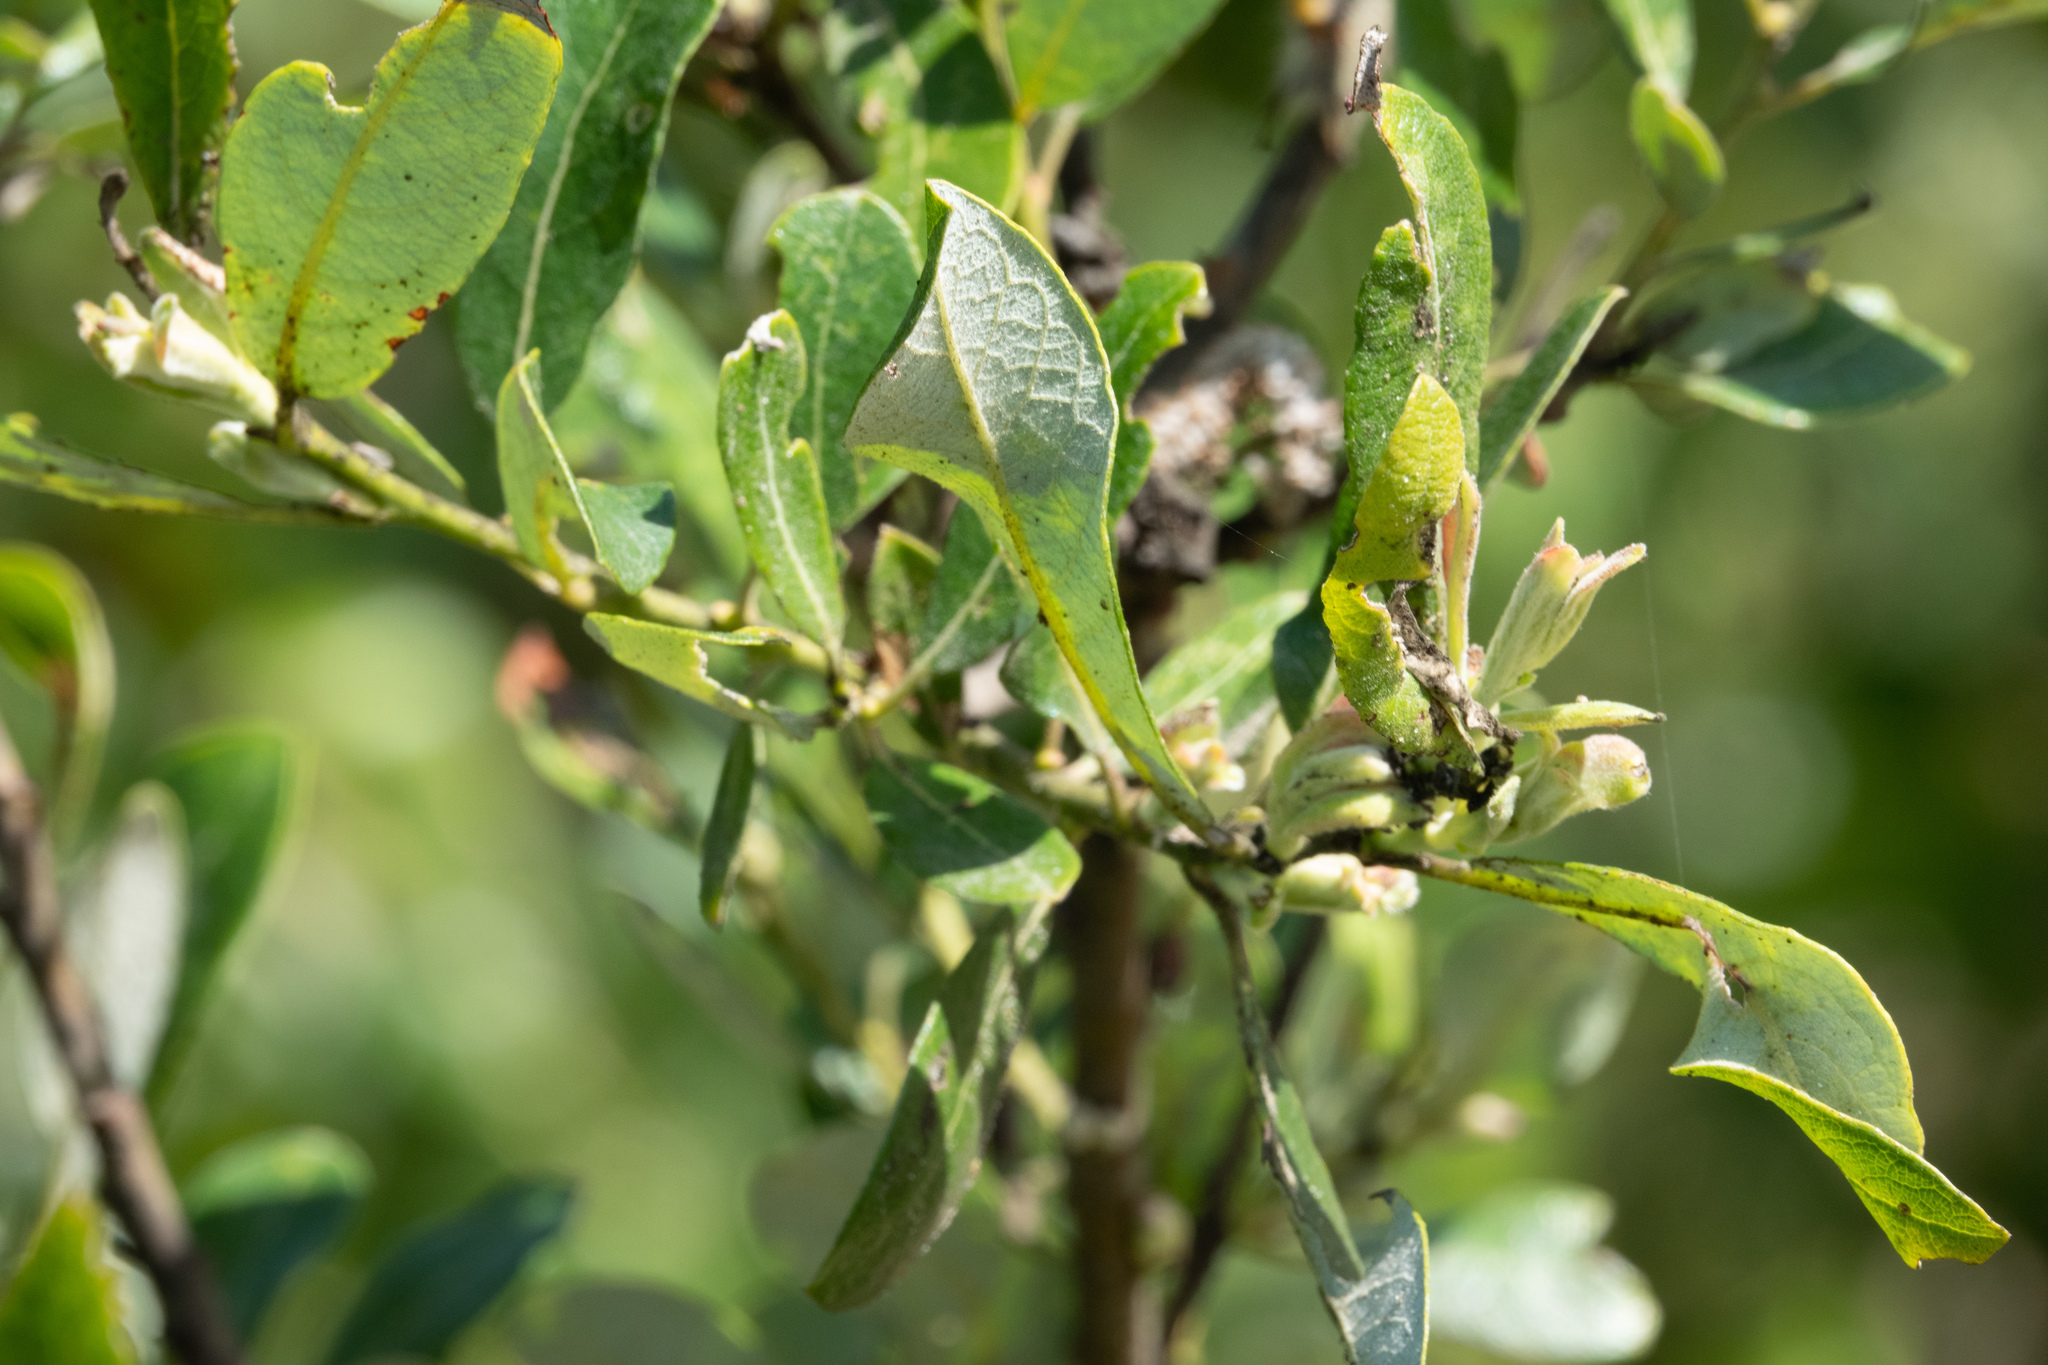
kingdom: Plantae
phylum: Tracheophyta
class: Magnoliopsida
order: Malpighiales
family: Salicaceae
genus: Salix
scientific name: Salix lasiolepis
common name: Arroyo willow
